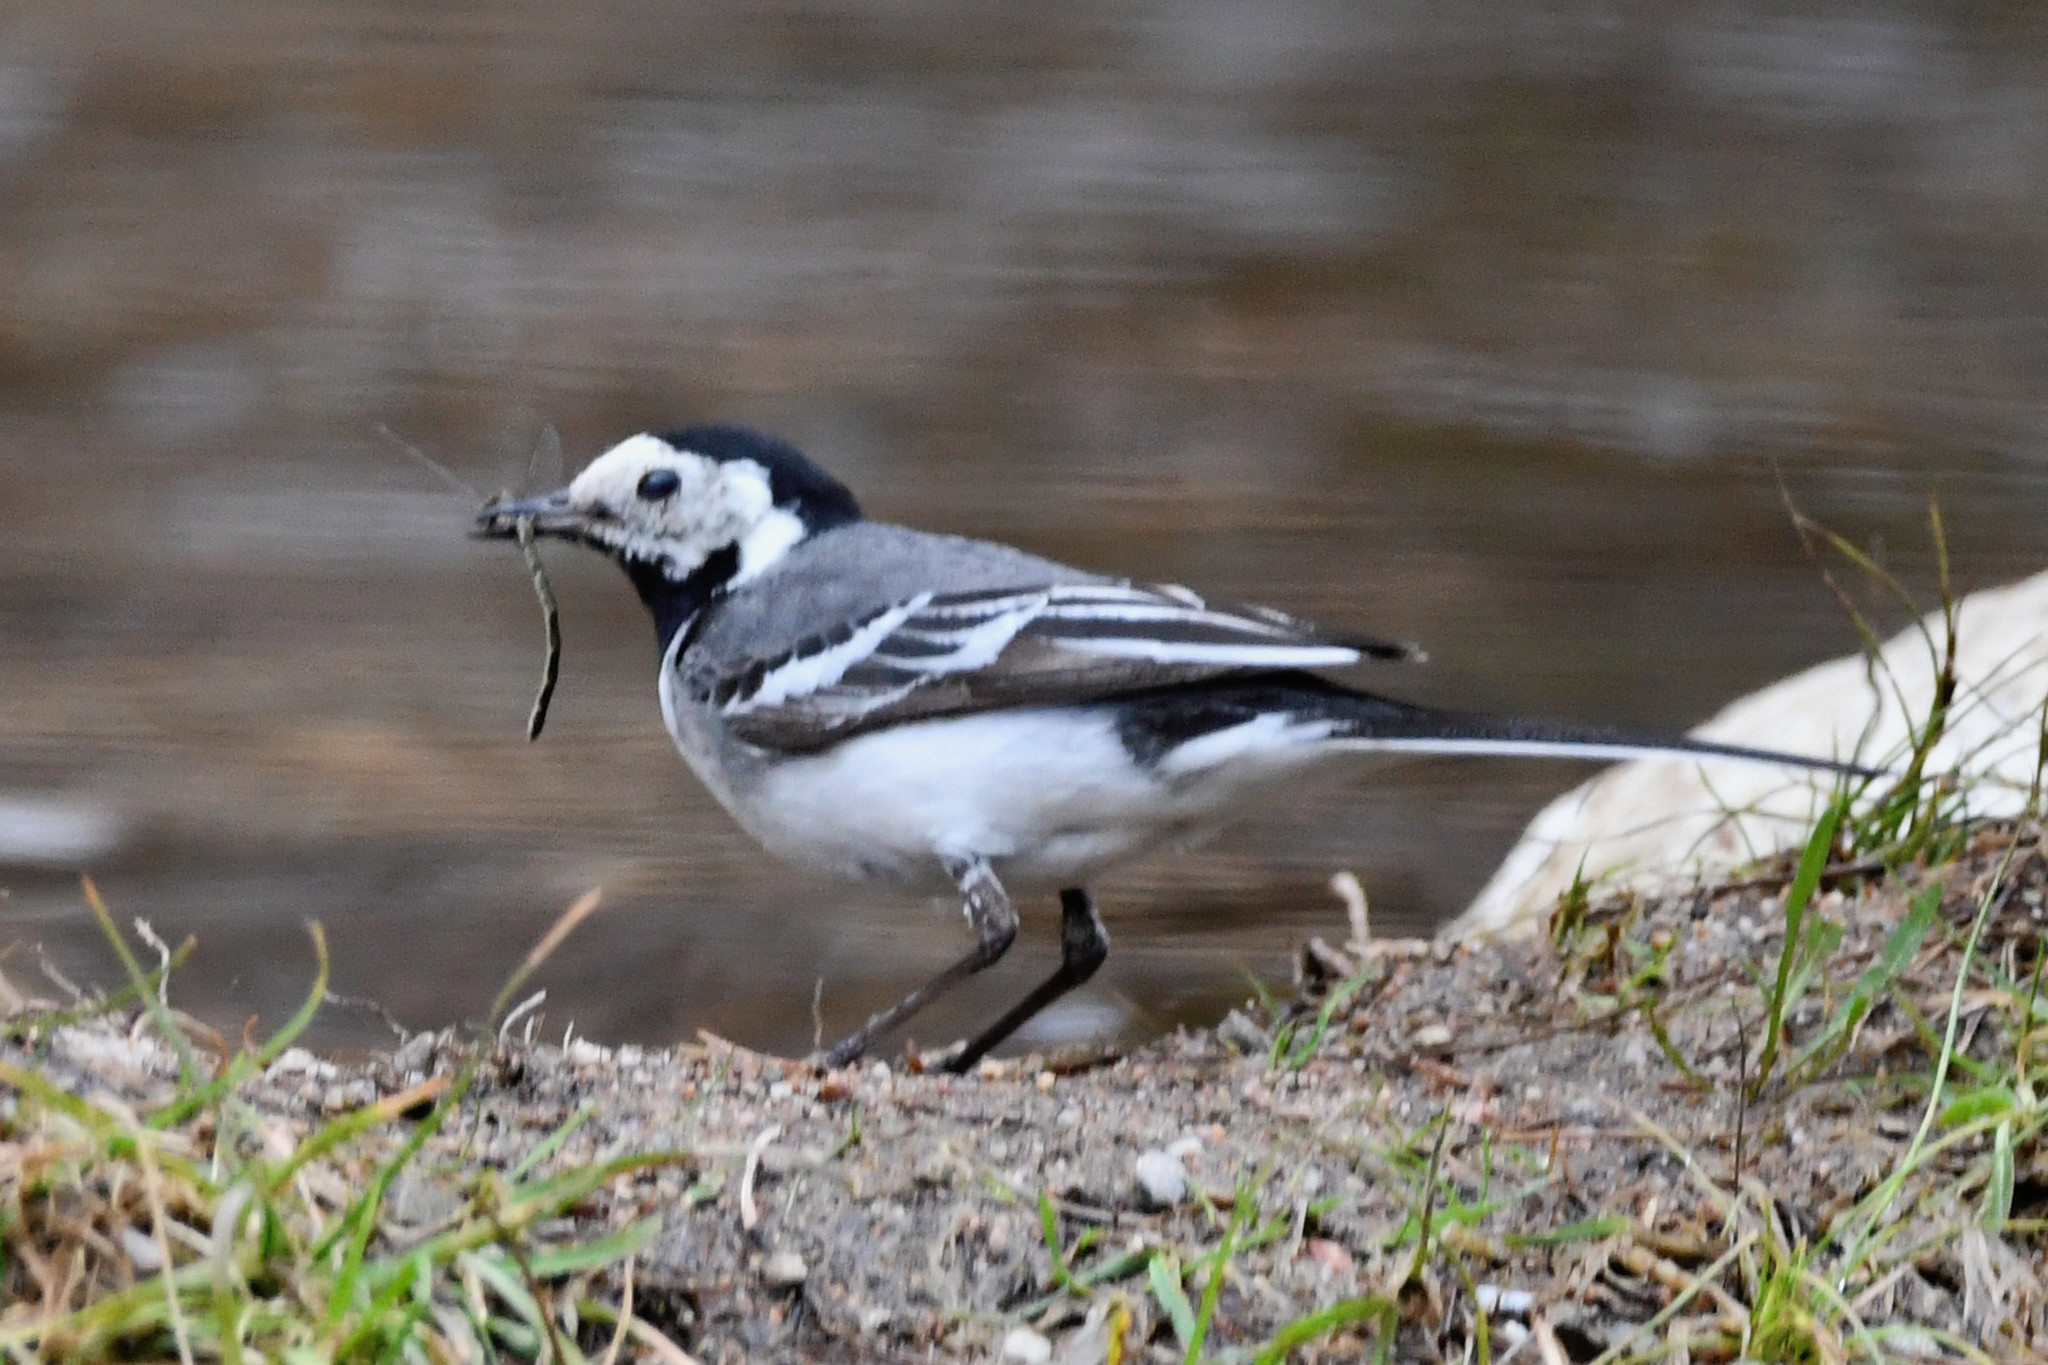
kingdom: Animalia
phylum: Chordata
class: Aves
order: Passeriformes
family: Motacillidae
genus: Motacilla
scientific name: Motacilla alba
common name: White wagtail
